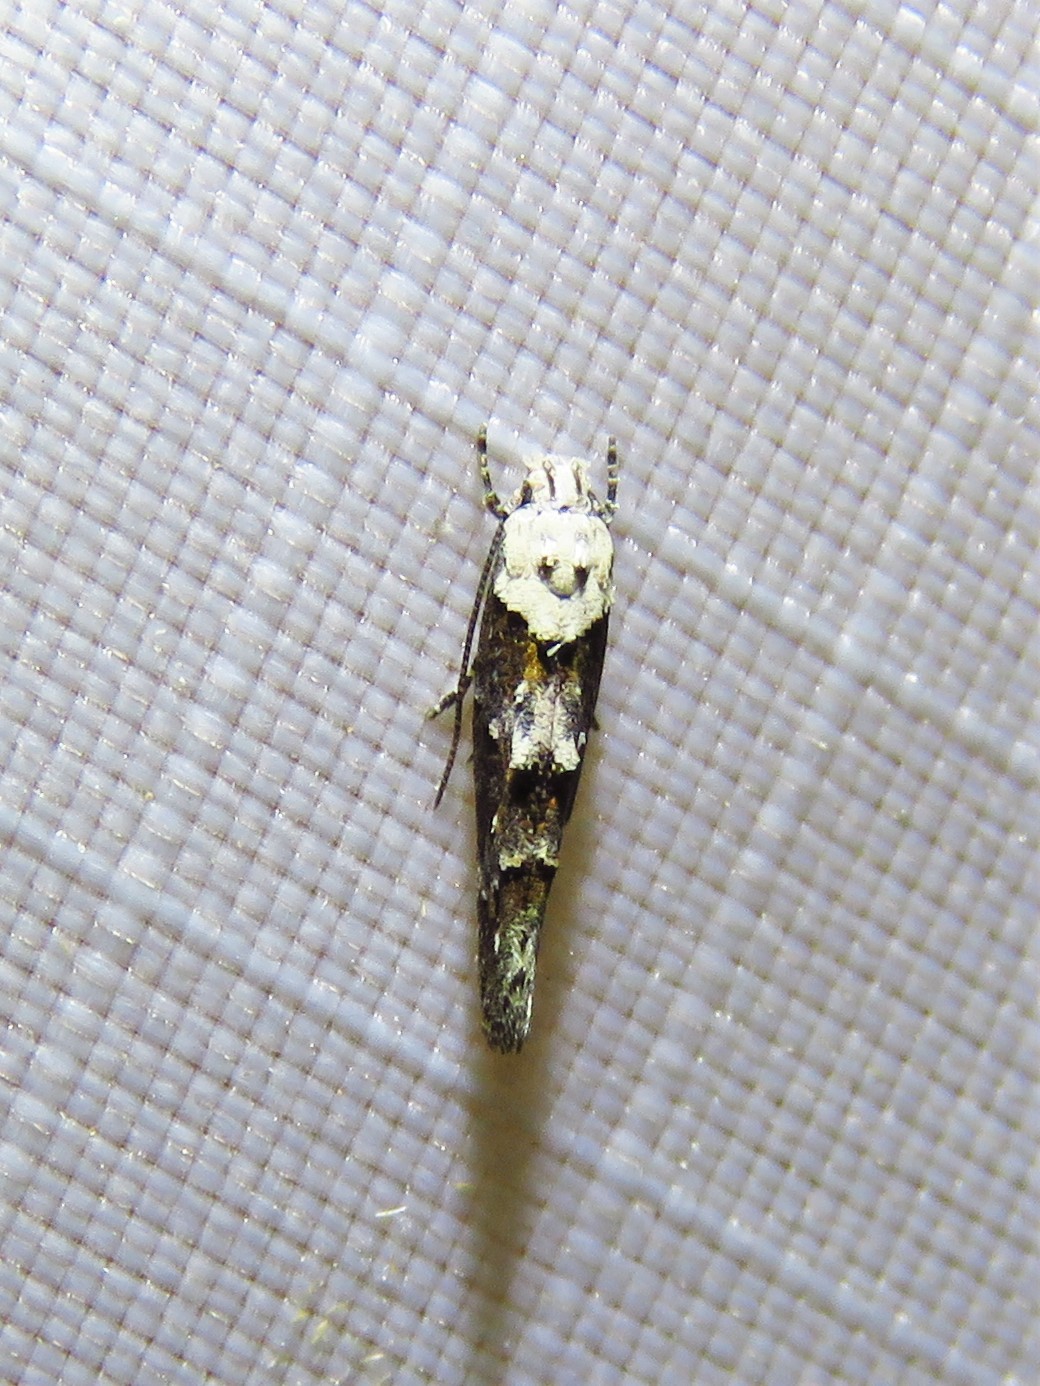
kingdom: Animalia
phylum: Arthropoda
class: Insecta
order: Lepidoptera
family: Momphidae
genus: Mompha
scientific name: Mompha albocapitella
